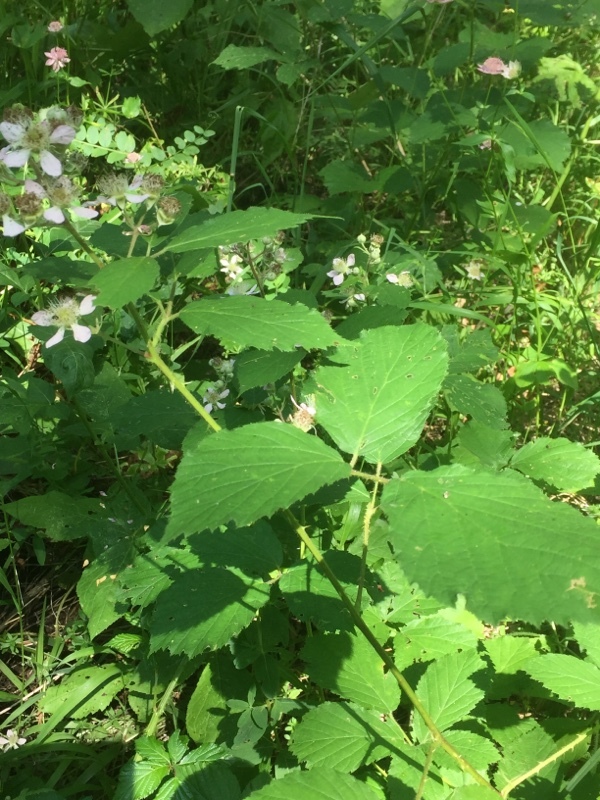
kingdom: Plantae
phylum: Tracheophyta
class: Magnoliopsida
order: Rosales
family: Rosaceae
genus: Rubus
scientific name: Rubus armeniacus
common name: Himalayan blackberry
